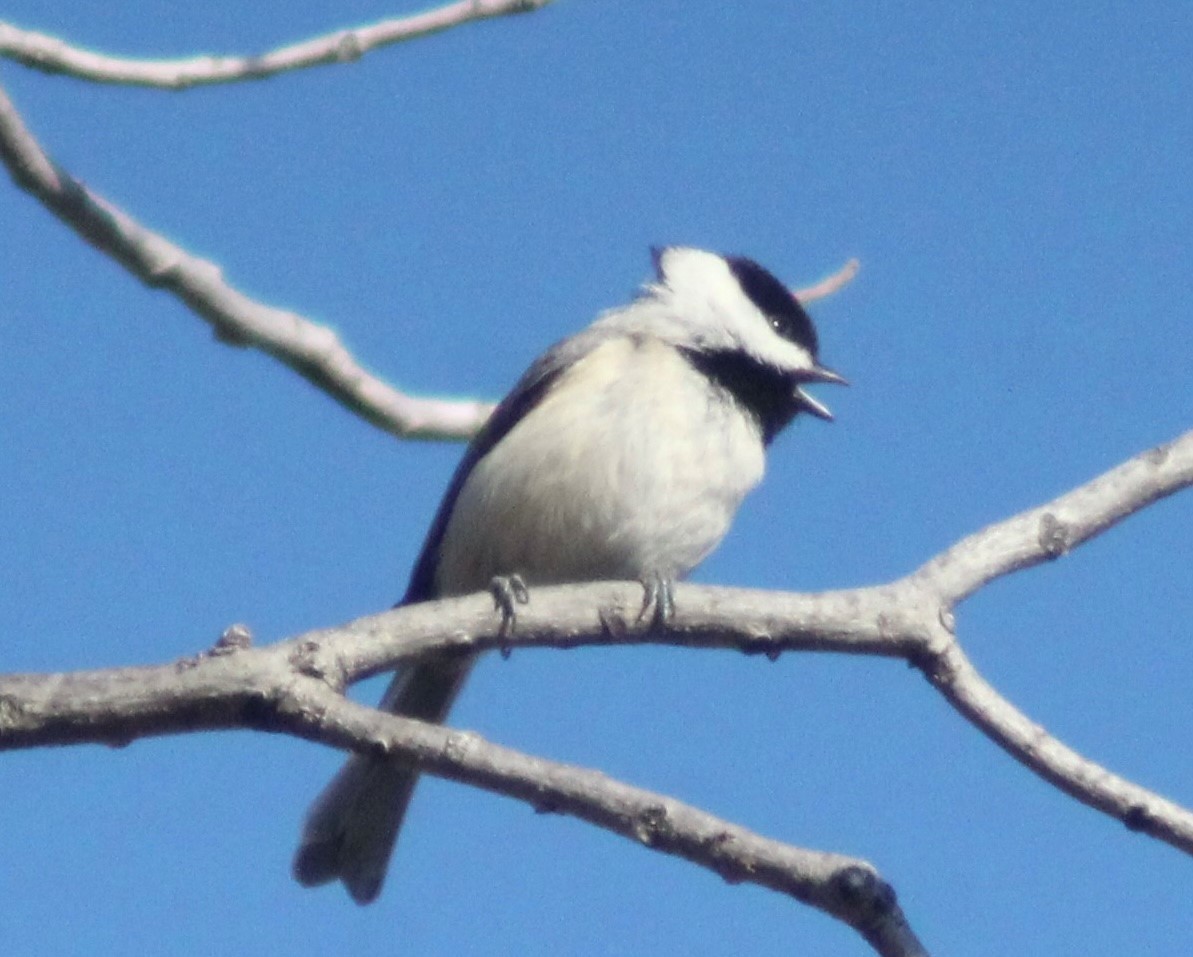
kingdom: Animalia
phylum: Chordata
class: Aves
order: Passeriformes
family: Paridae
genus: Poecile
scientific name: Poecile carolinensis
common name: Carolina chickadee
